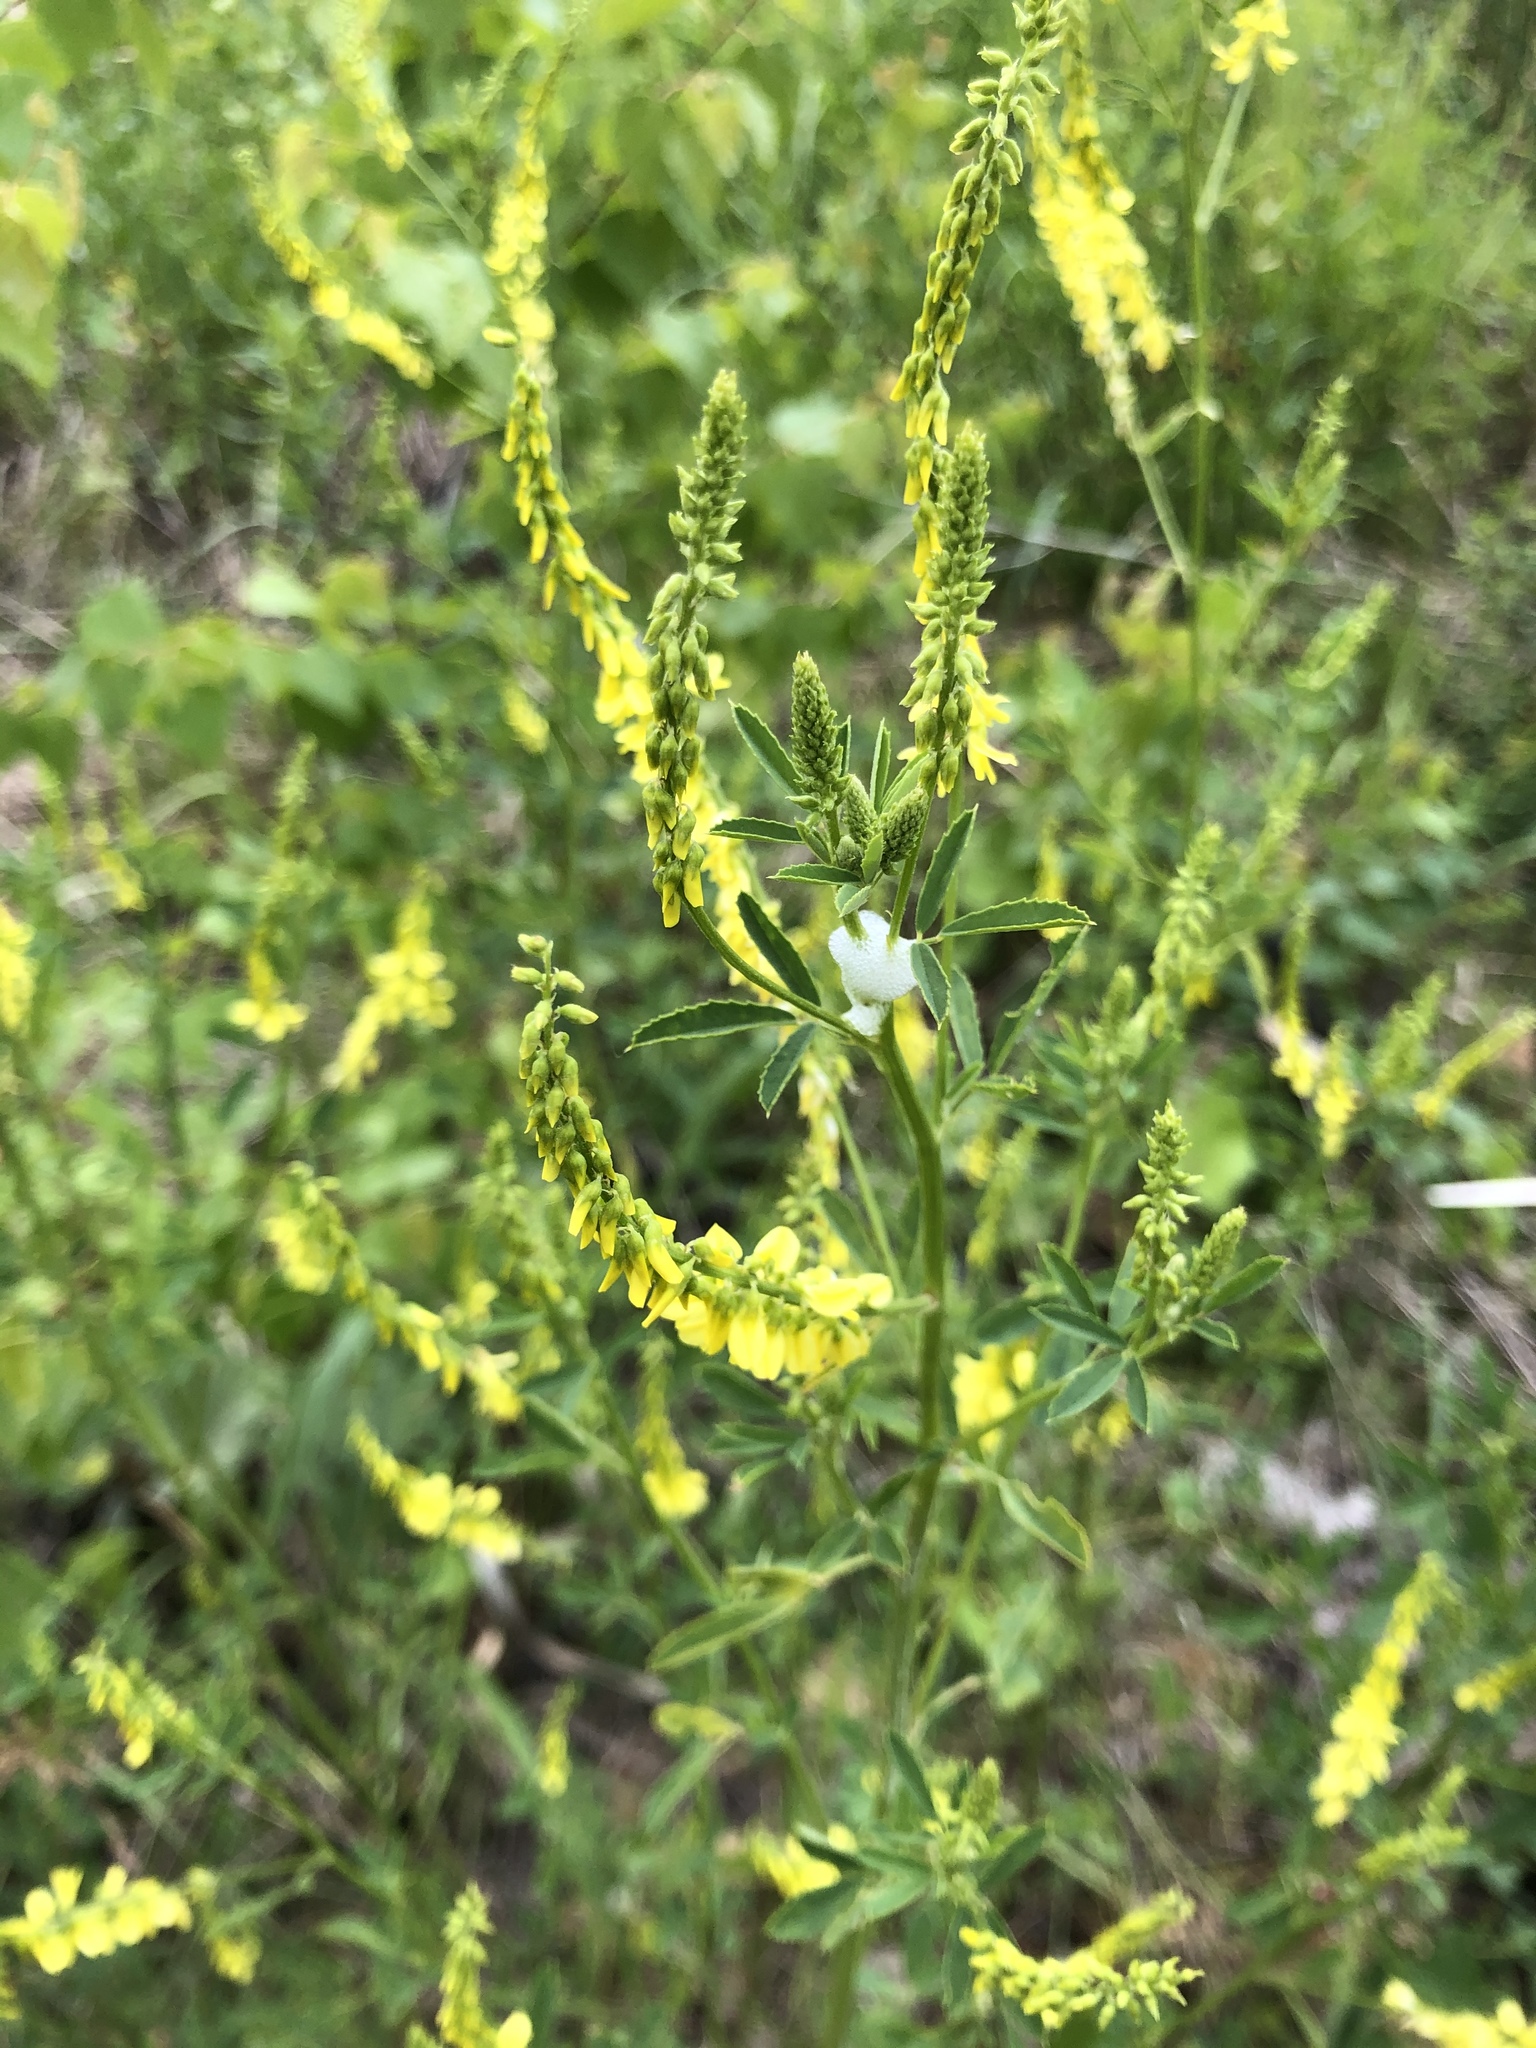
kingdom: Plantae
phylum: Tracheophyta
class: Magnoliopsida
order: Fabales
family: Fabaceae
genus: Melilotus
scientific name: Melilotus officinalis
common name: Sweetclover
